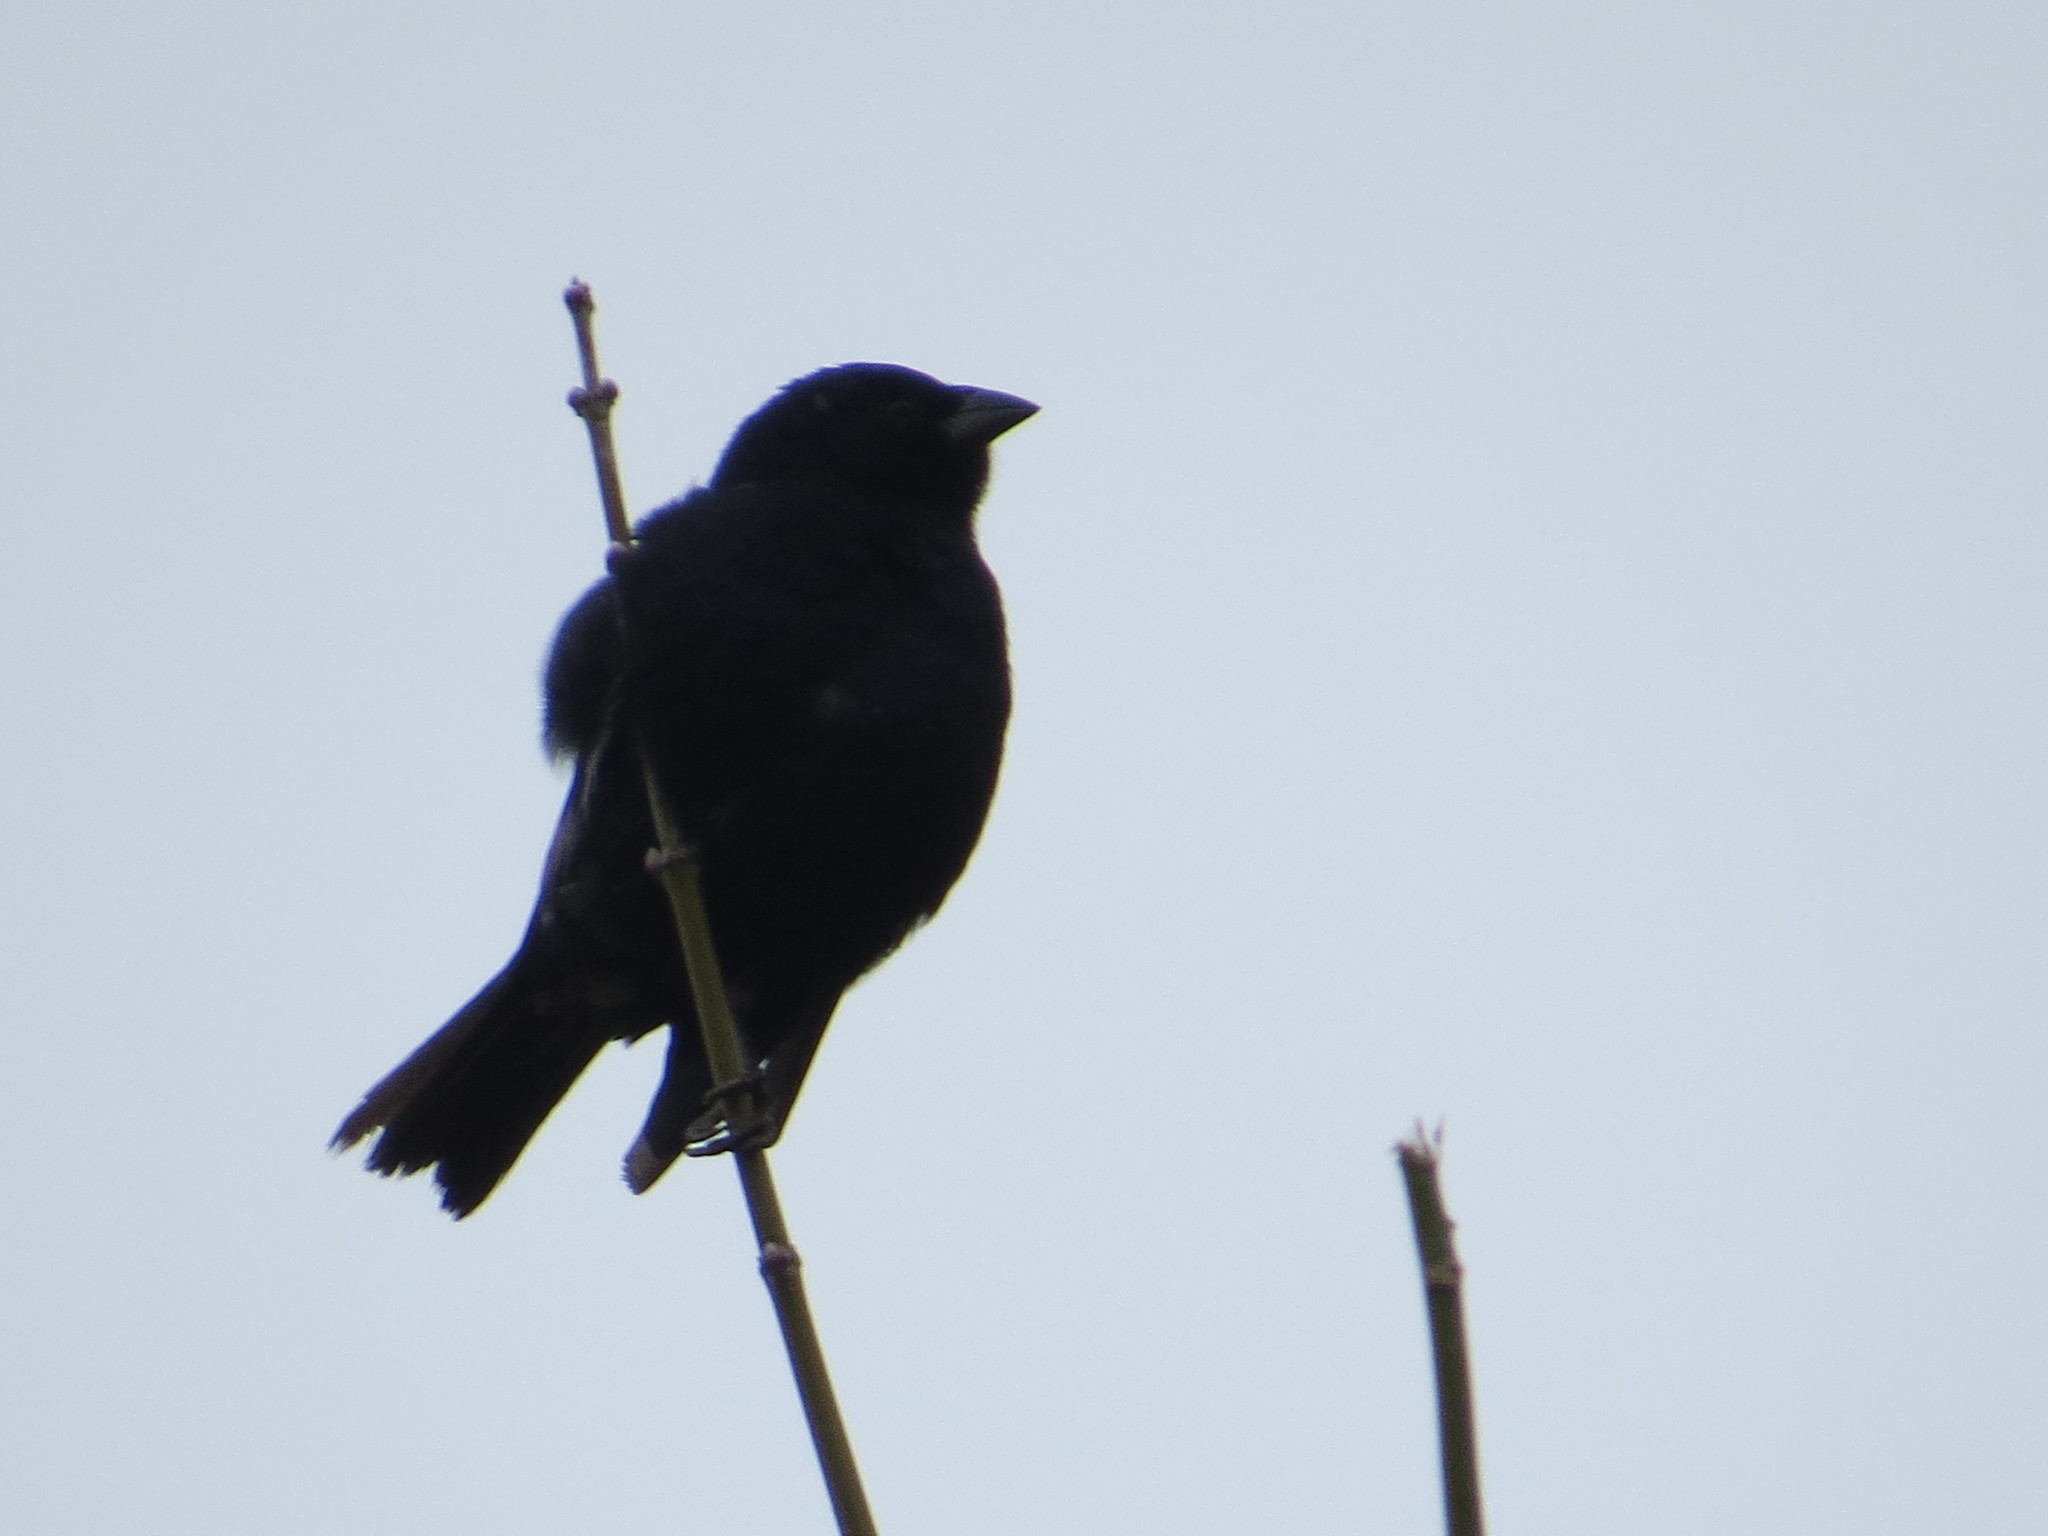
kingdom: Animalia
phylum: Chordata
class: Aves
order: Passeriformes
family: Icteridae
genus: Molothrus
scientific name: Molothrus rufoaxillaris
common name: Screaming cowbird
